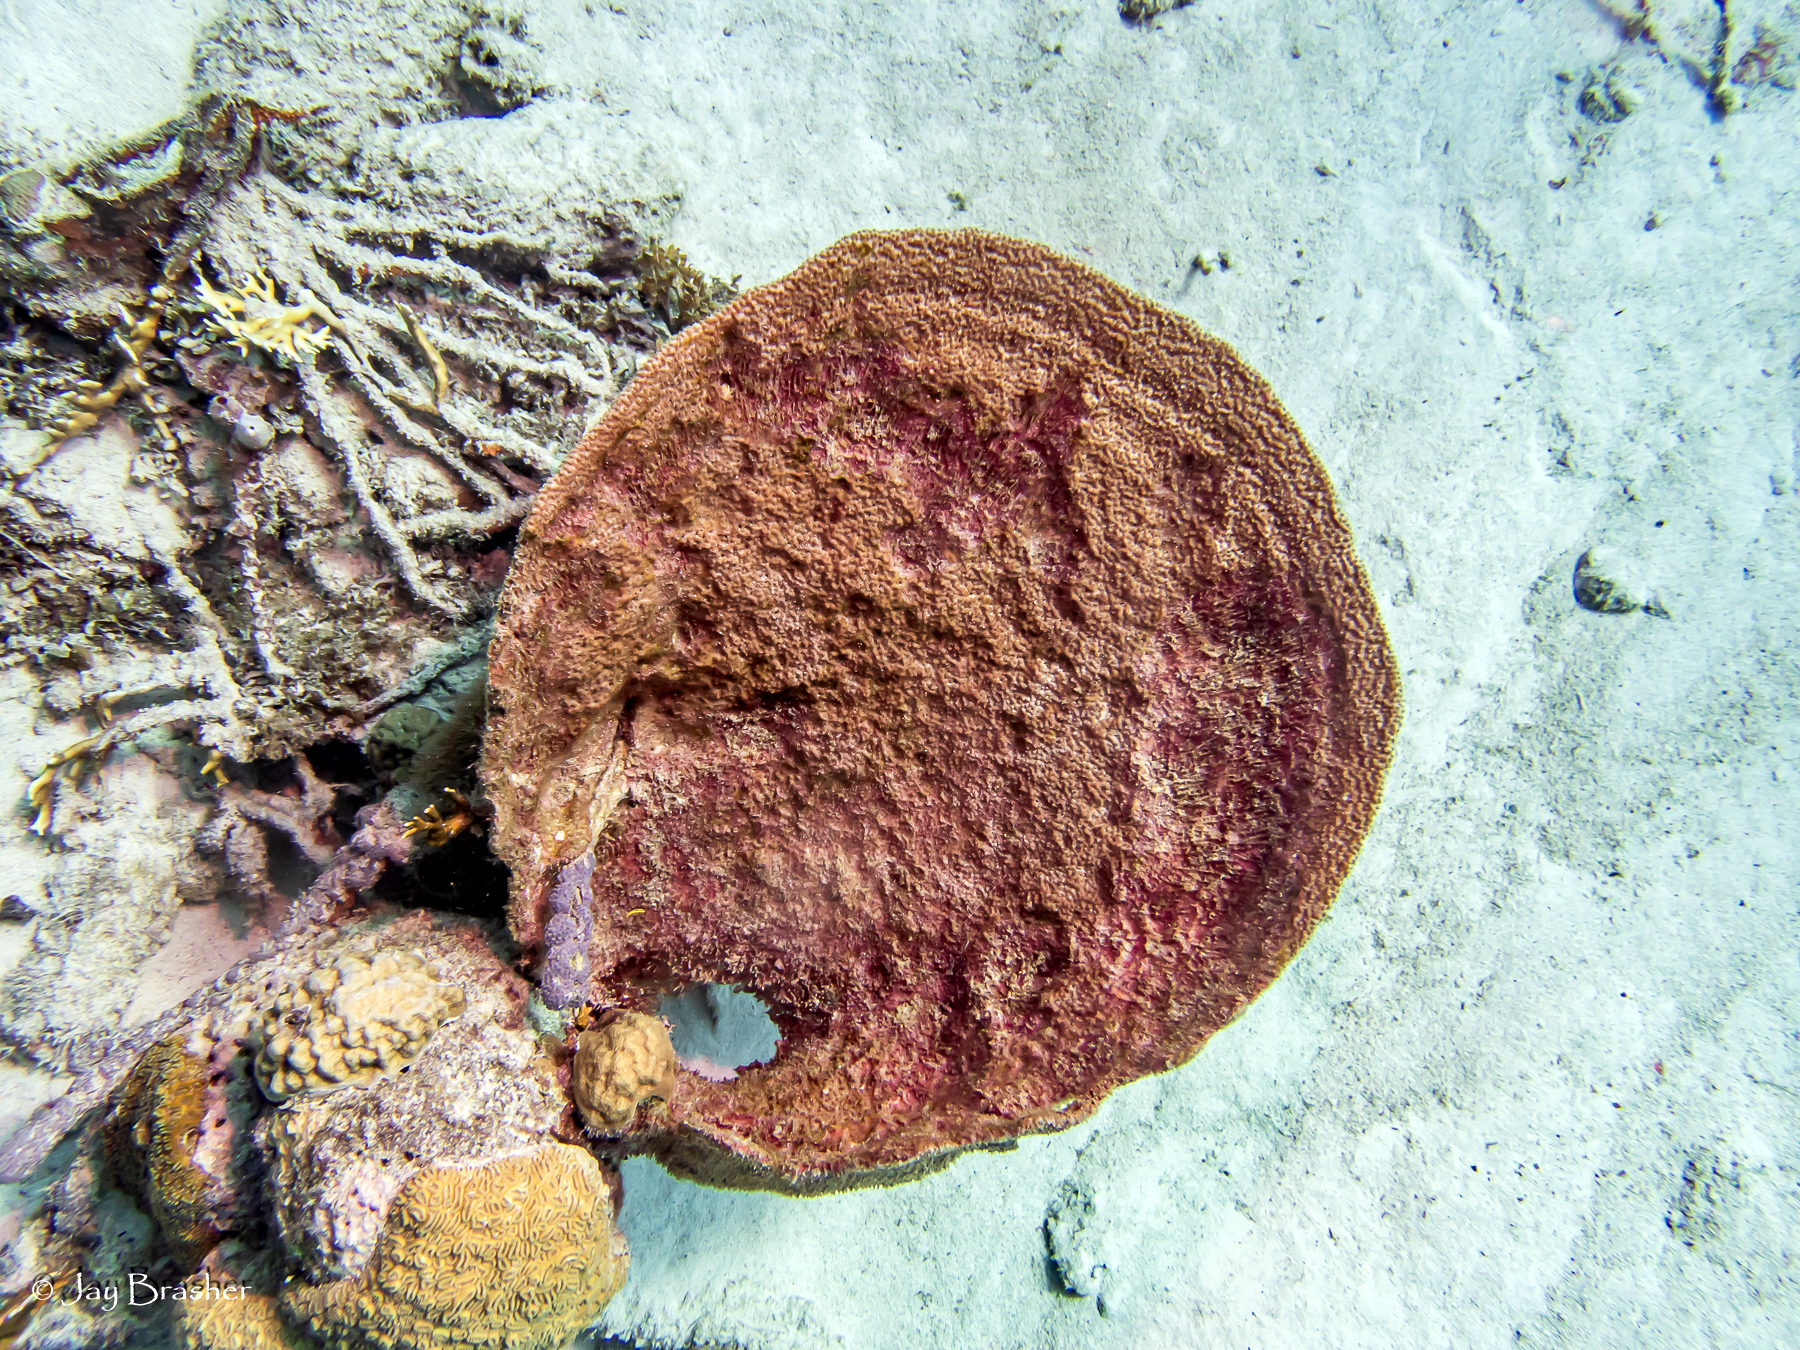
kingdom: Animalia
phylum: Porifera
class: Demospongiae
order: Dictyoceratida
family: Irciniidae
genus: Ircinia
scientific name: Ircinia campana
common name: Vase sponge
